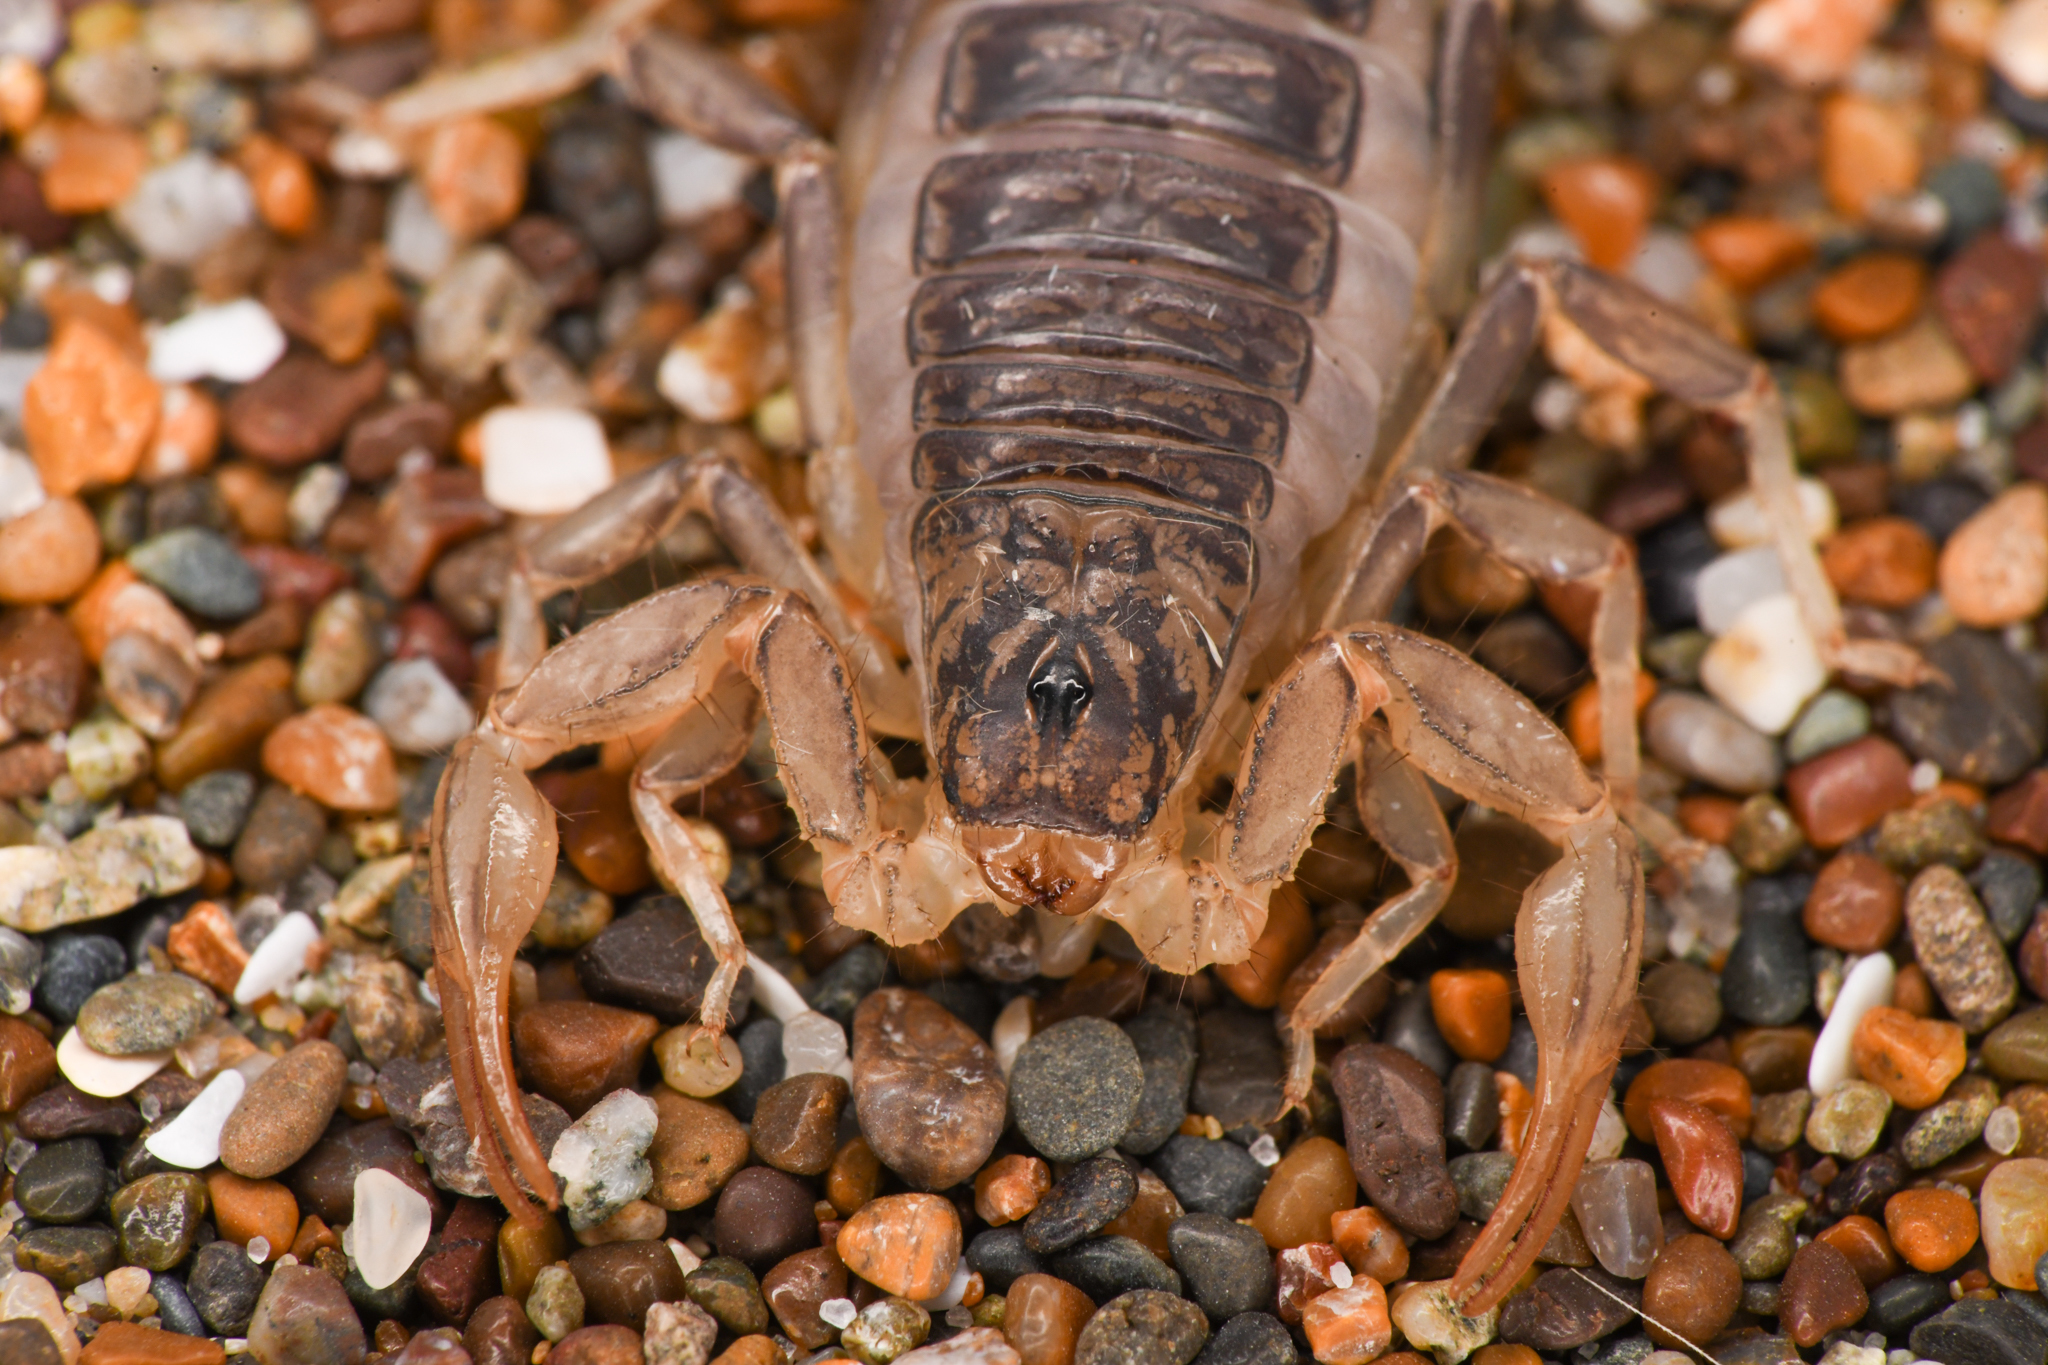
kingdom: Animalia
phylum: Arthropoda
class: Arachnida
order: Scorpiones
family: Vaejovidae
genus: Paruroctonus
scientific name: Paruroctonus silvestrii
